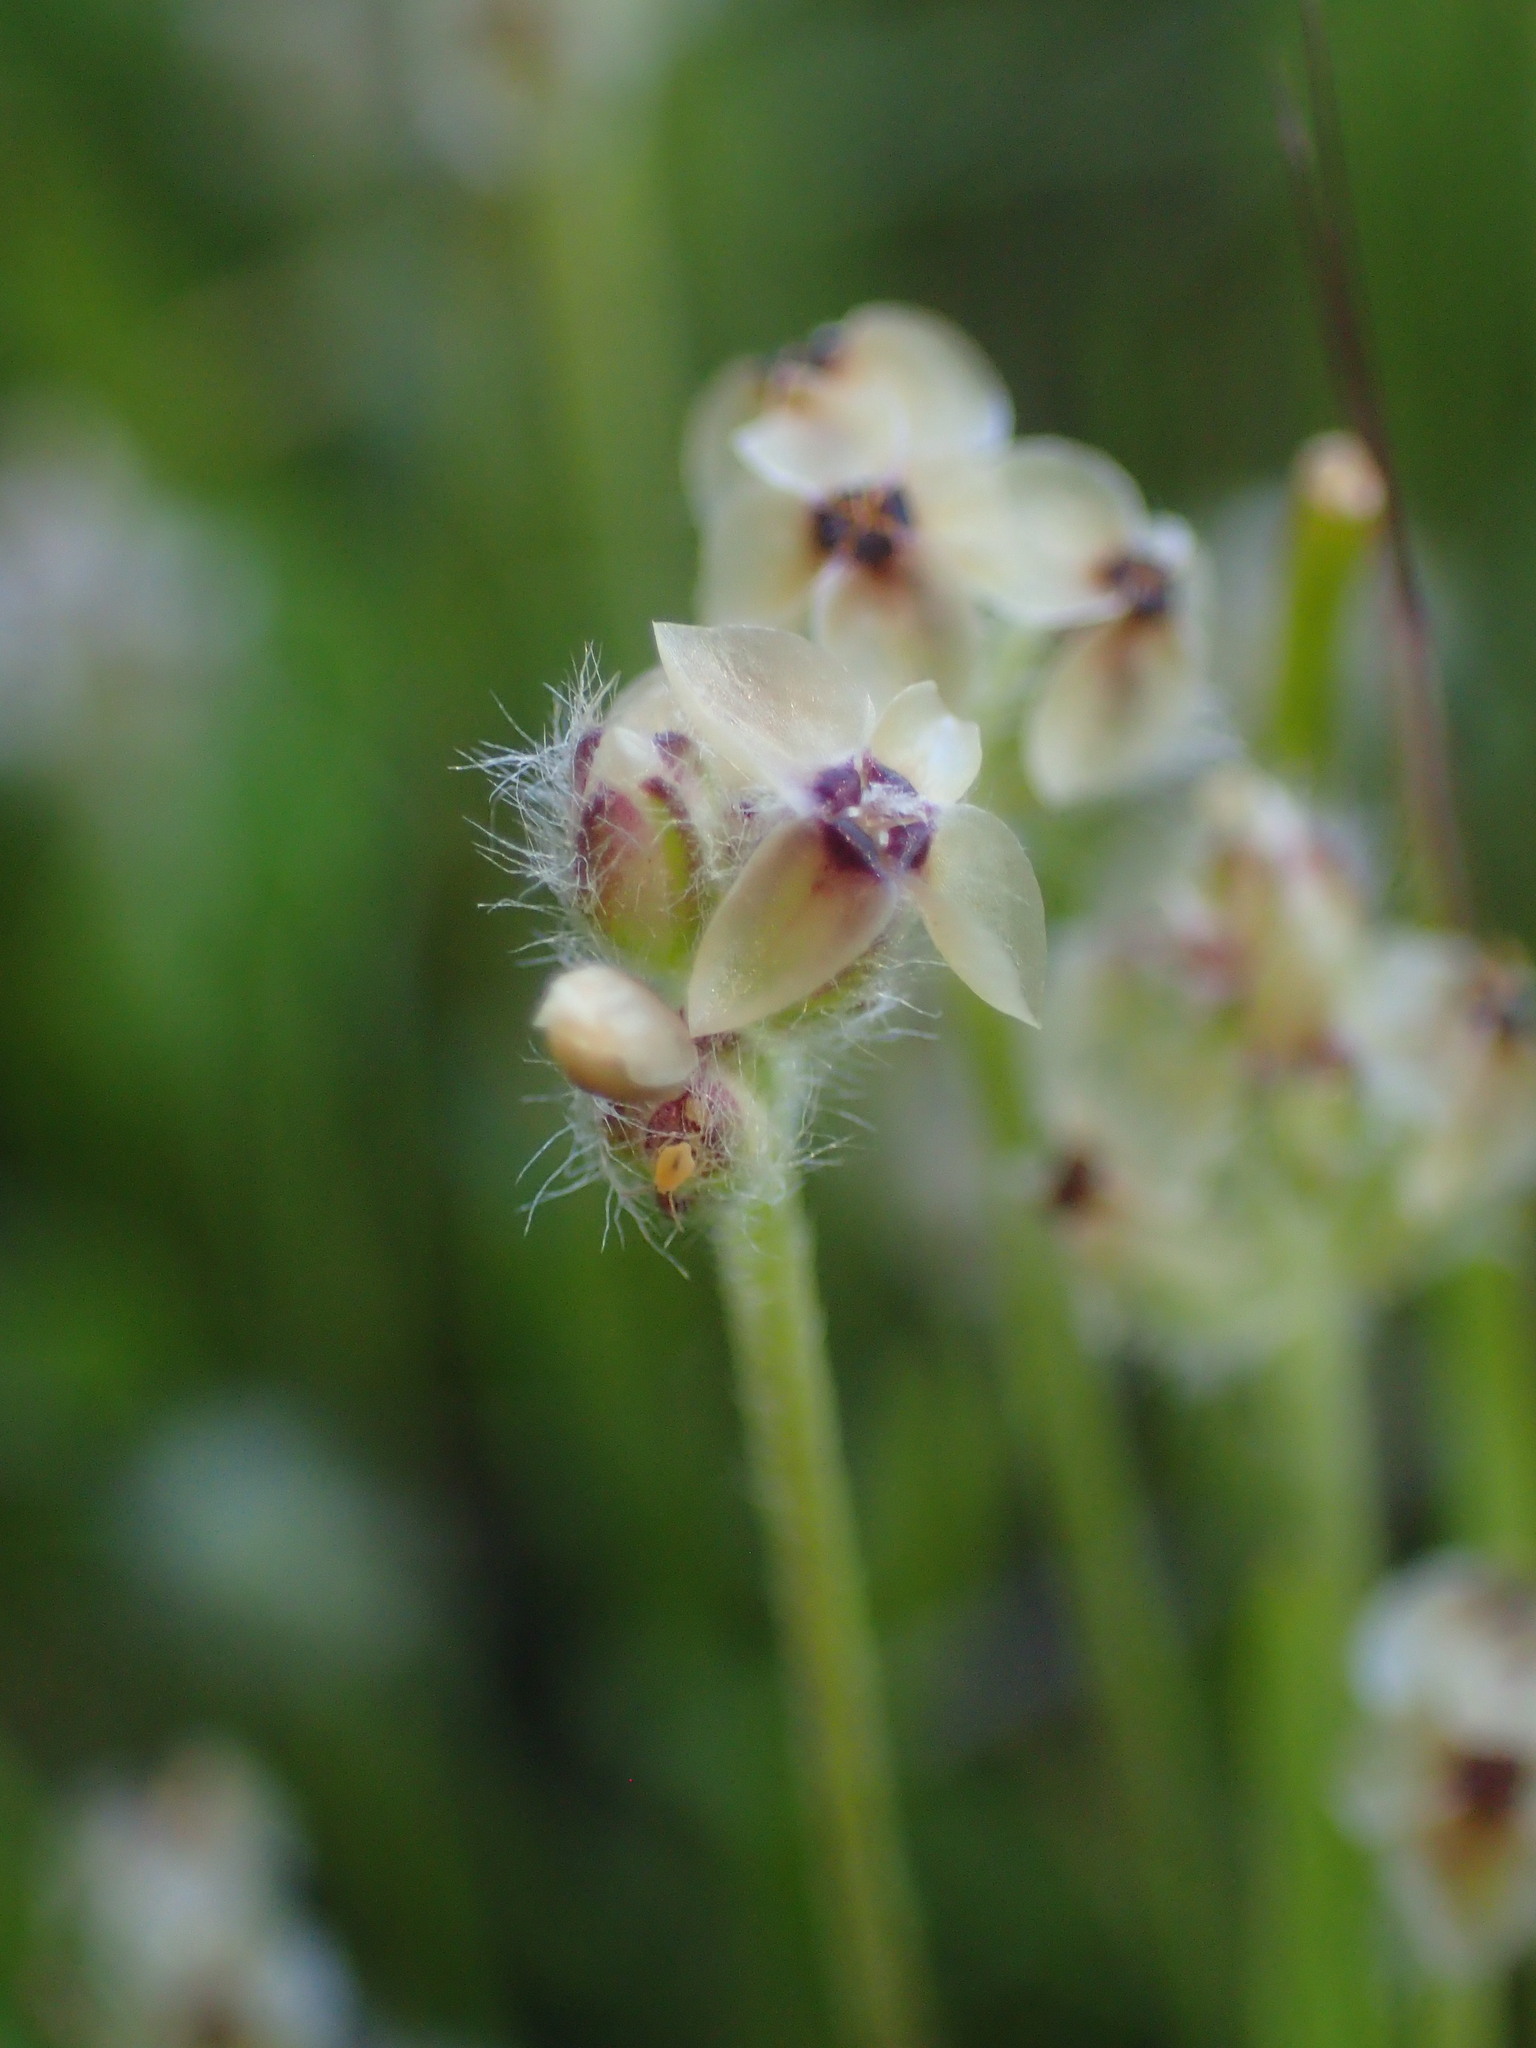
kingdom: Plantae
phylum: Tracheophyta
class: Magnoliopsida
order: Lamiales
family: Plantaginaceae
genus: Plantago
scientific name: Plantago erecta
